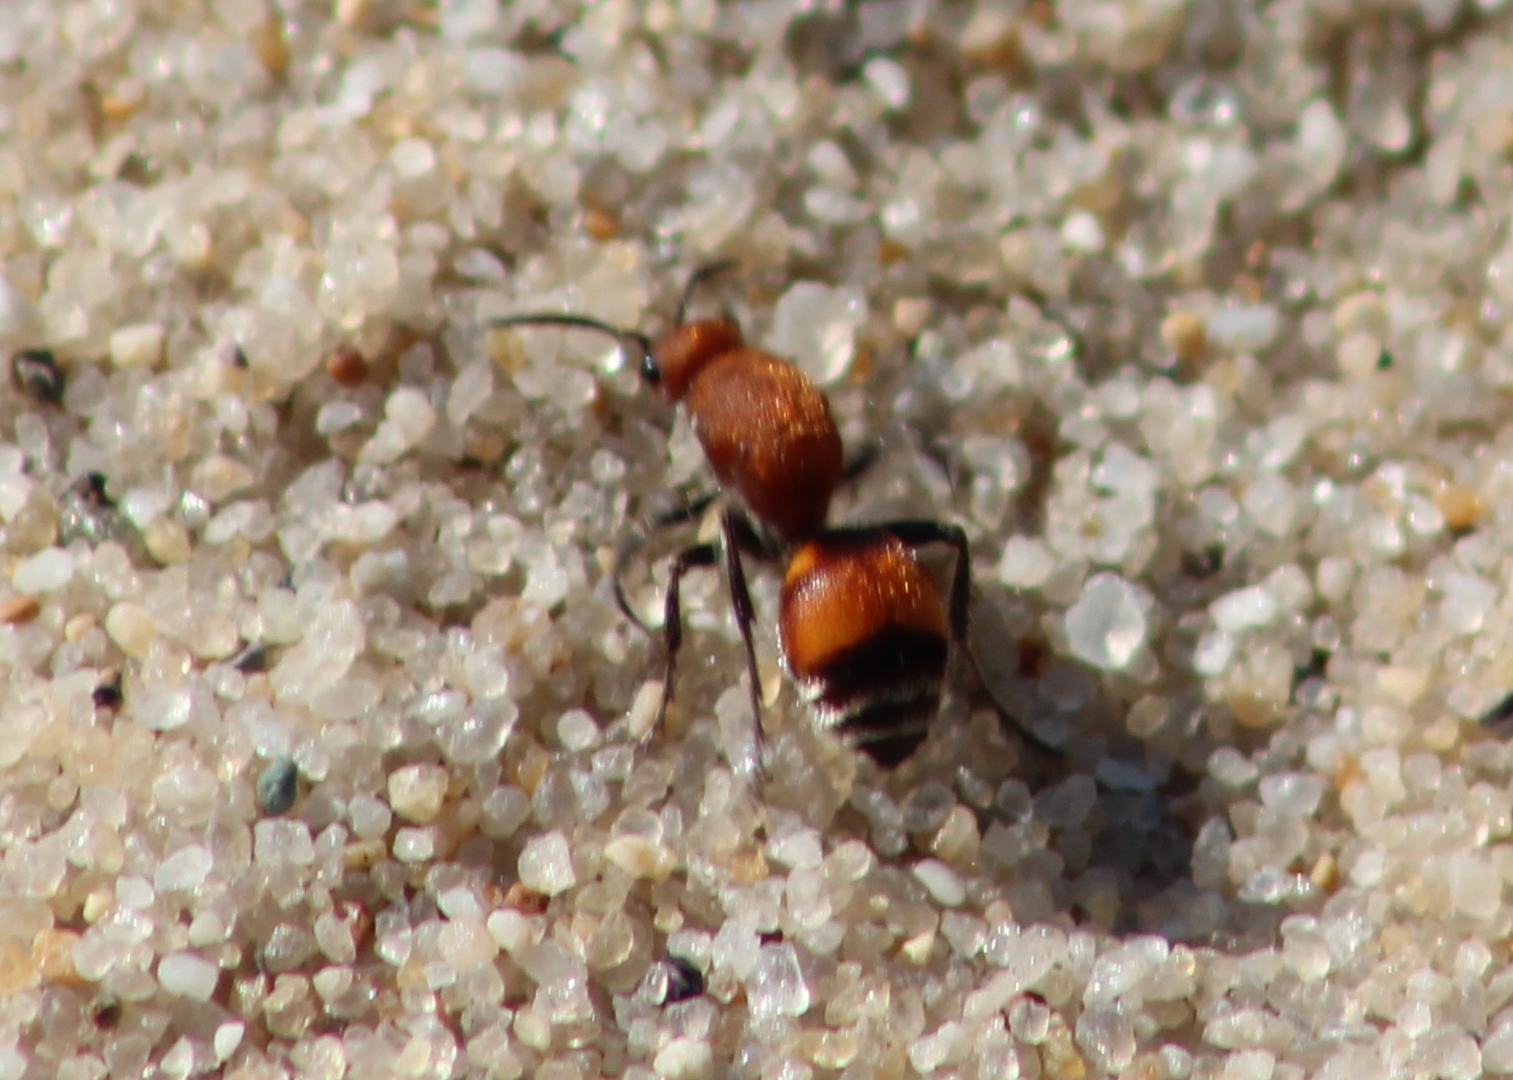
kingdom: Animalia
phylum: Arthropoda
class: Insecta
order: Hymenoptera
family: Mutillidae
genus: Dasymutilla
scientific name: Dasymutilla
